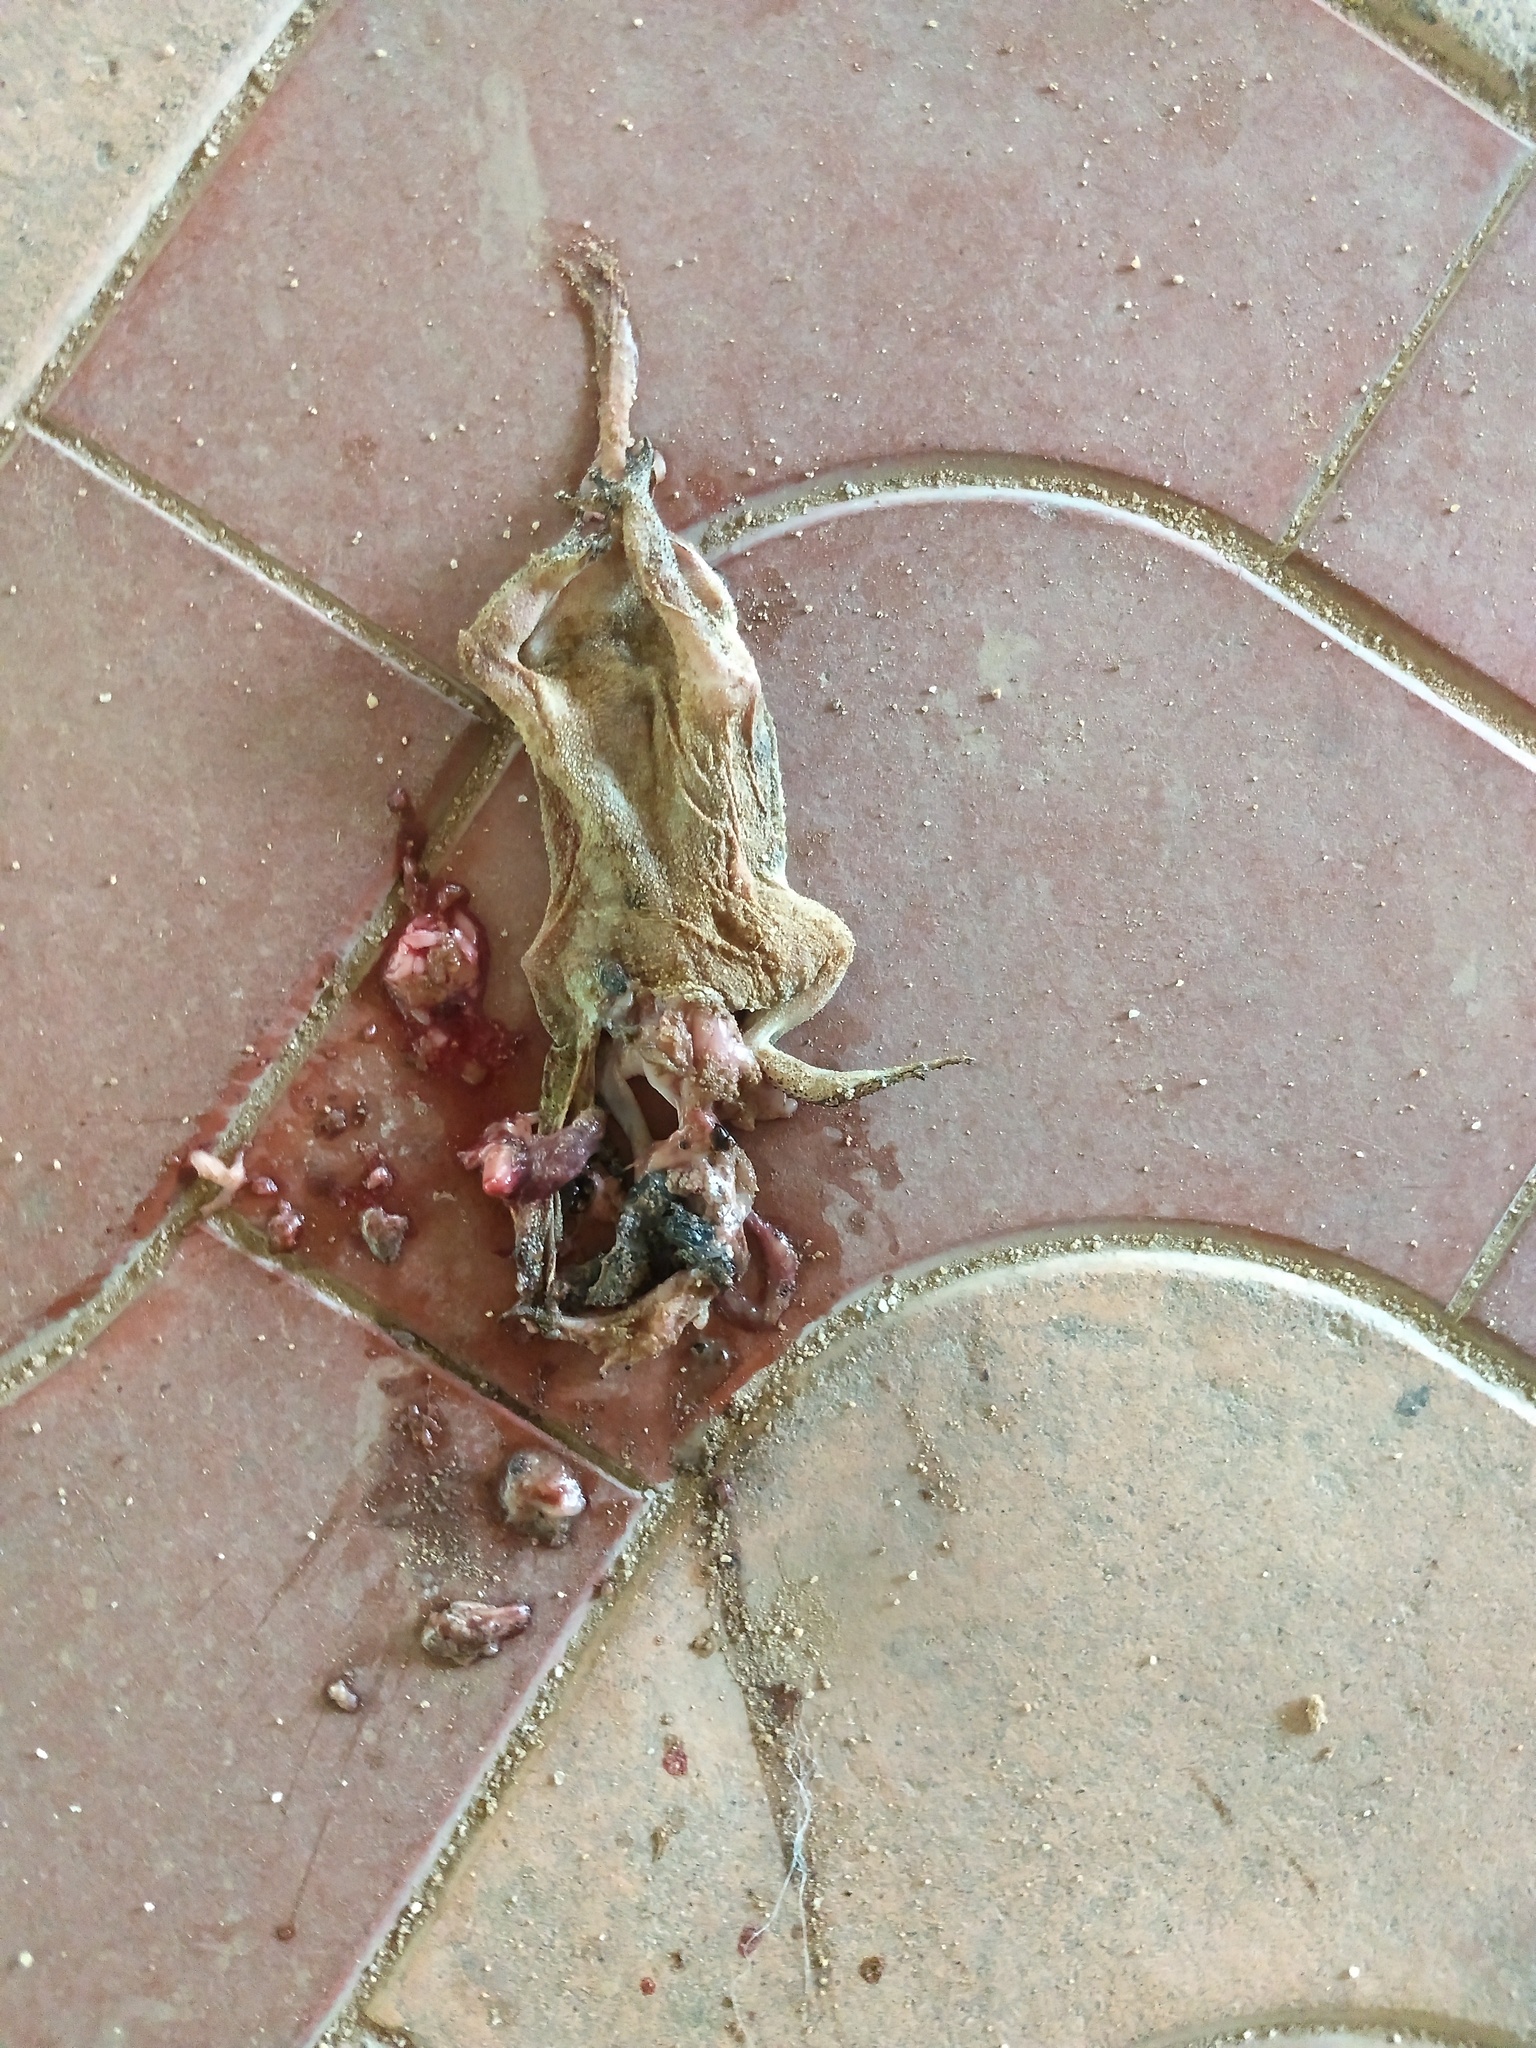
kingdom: Animalia
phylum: Chordata
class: Amphibia
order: Anura
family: Bufonidae
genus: Duttaphrynus
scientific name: Duttaphrynus melanostictus
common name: Common sunda toad
